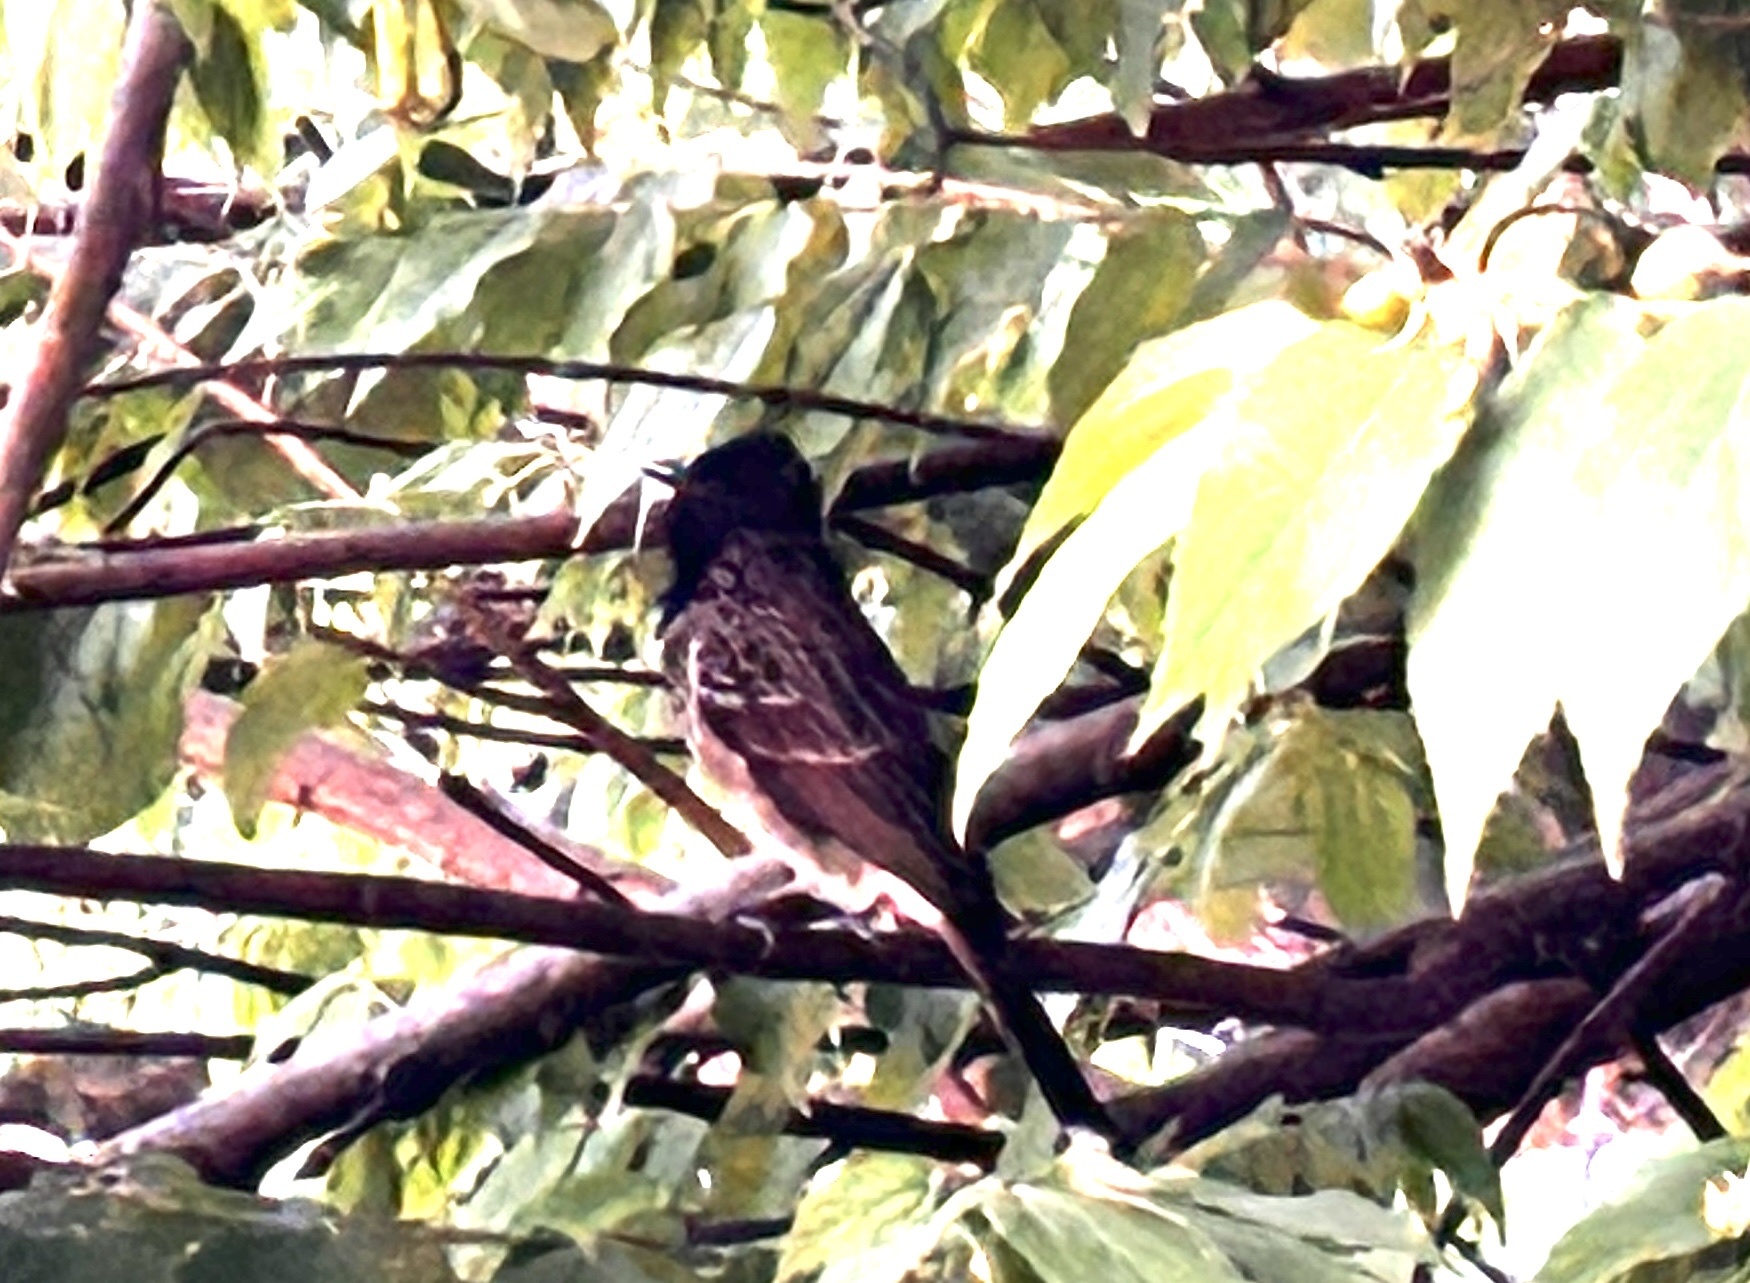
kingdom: Animalia
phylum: Chordata
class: Aves
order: Passeriformes
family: Pycnonotidae
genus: Pycnonotus
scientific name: Pycnonotus cafer
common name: Red-vented bulbul
